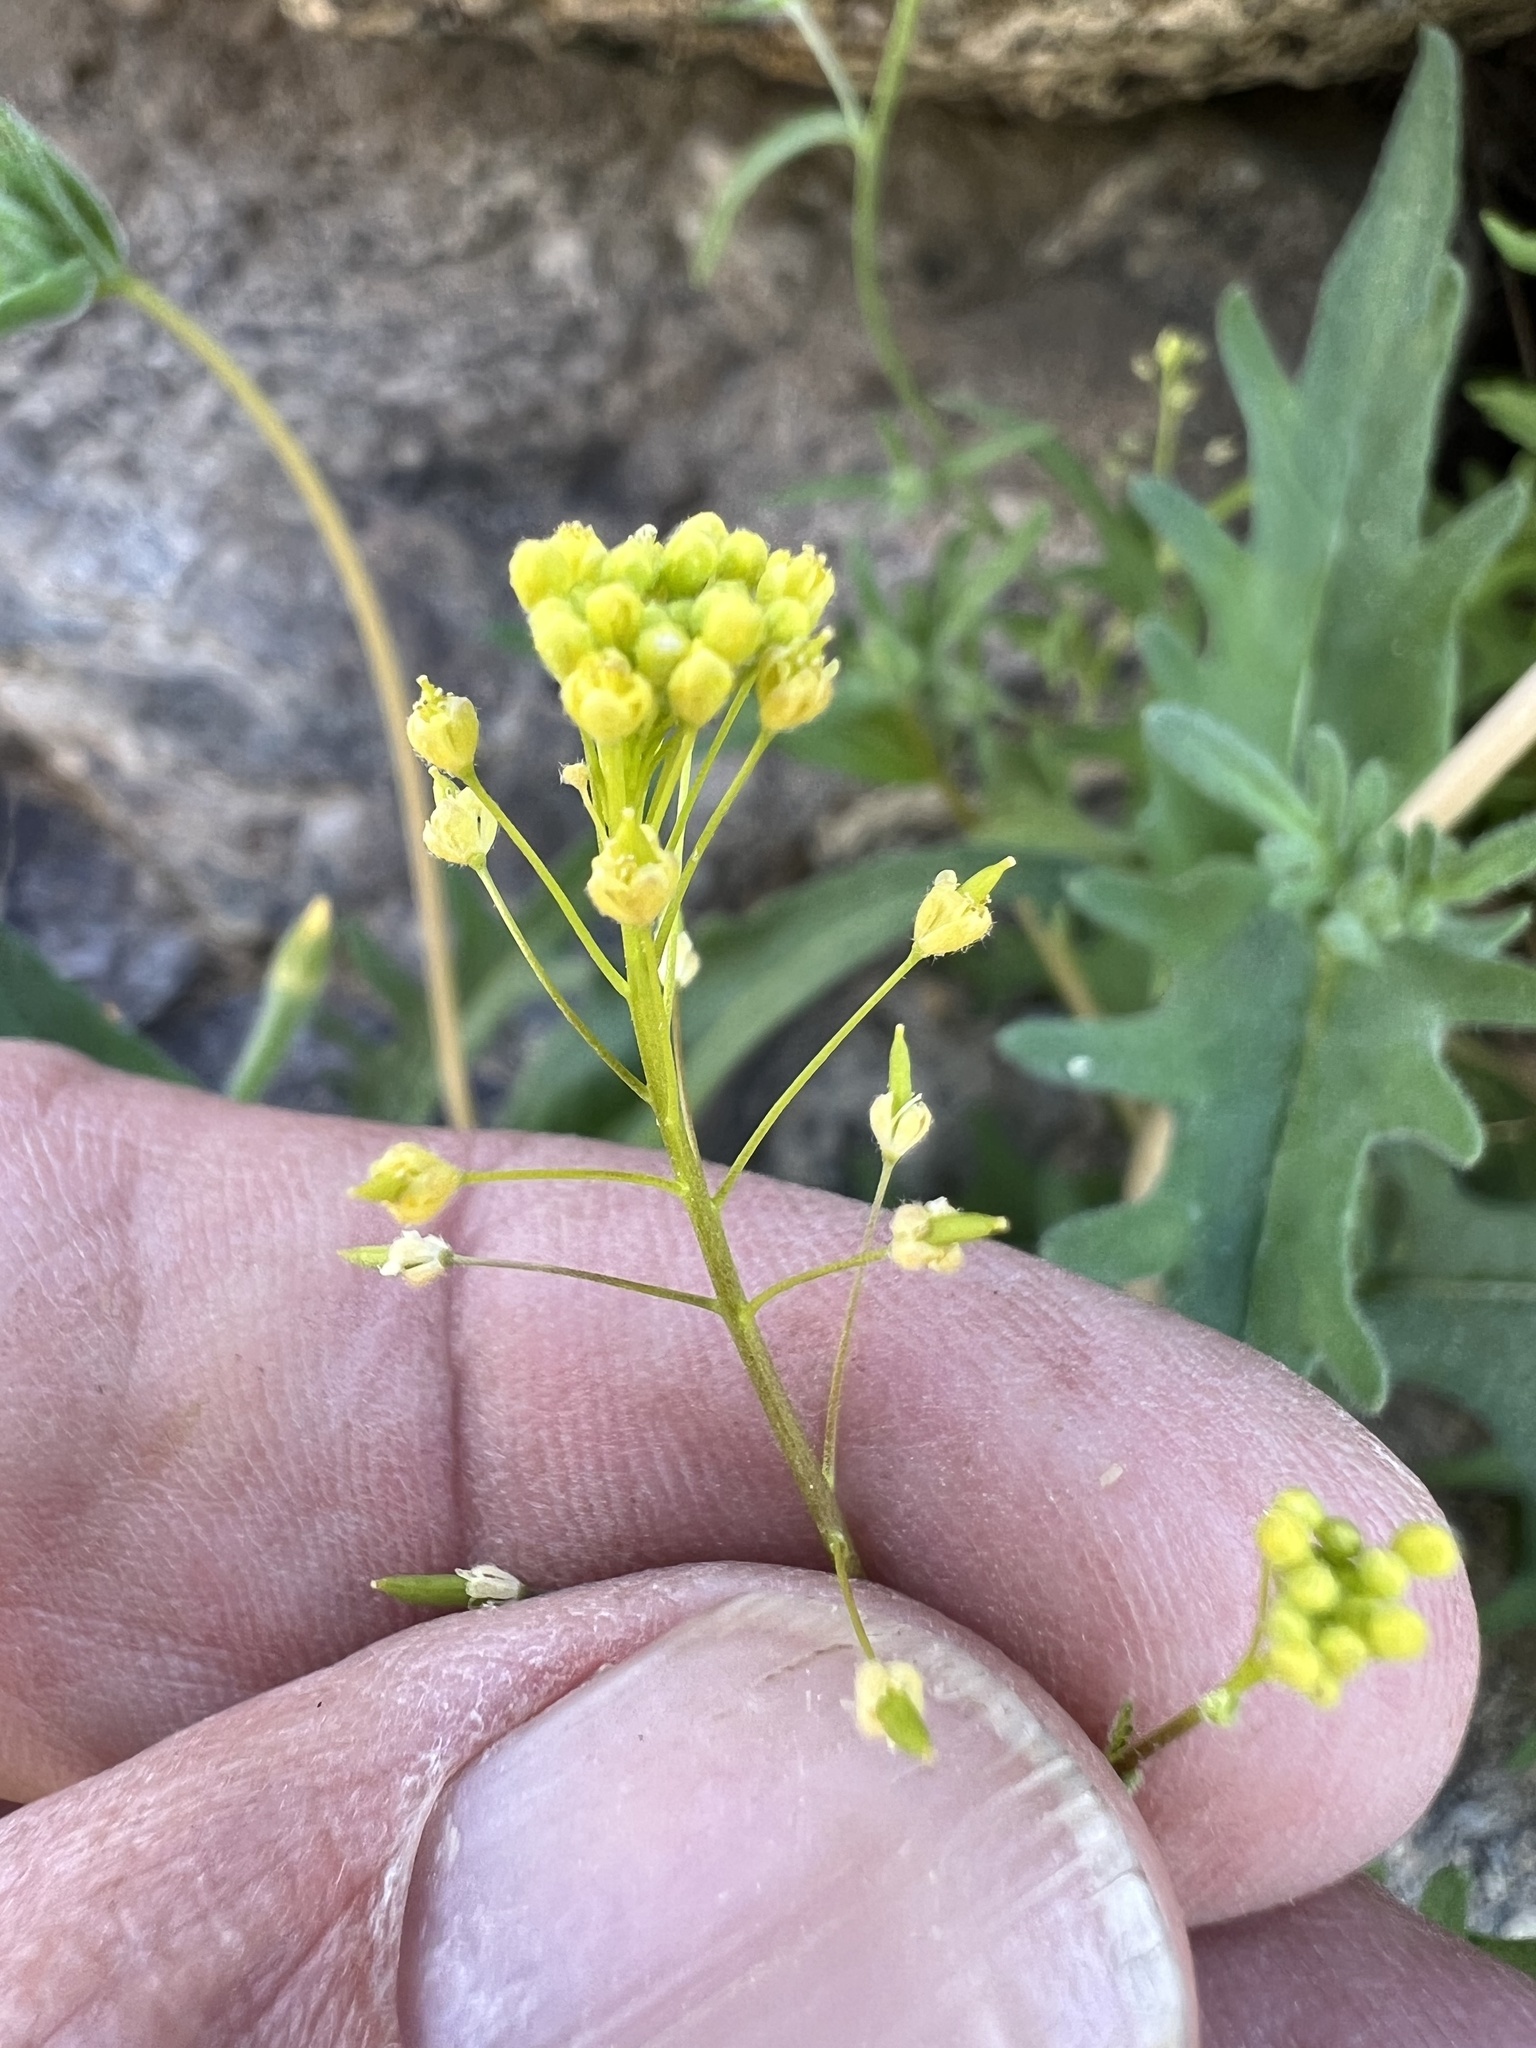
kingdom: Plantae
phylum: Tracheophyta
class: Magnoliopsida
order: Brassicales
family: Brassicaceae
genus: Descurainia
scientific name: Descurainia pinnata
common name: Western tansy mustard
